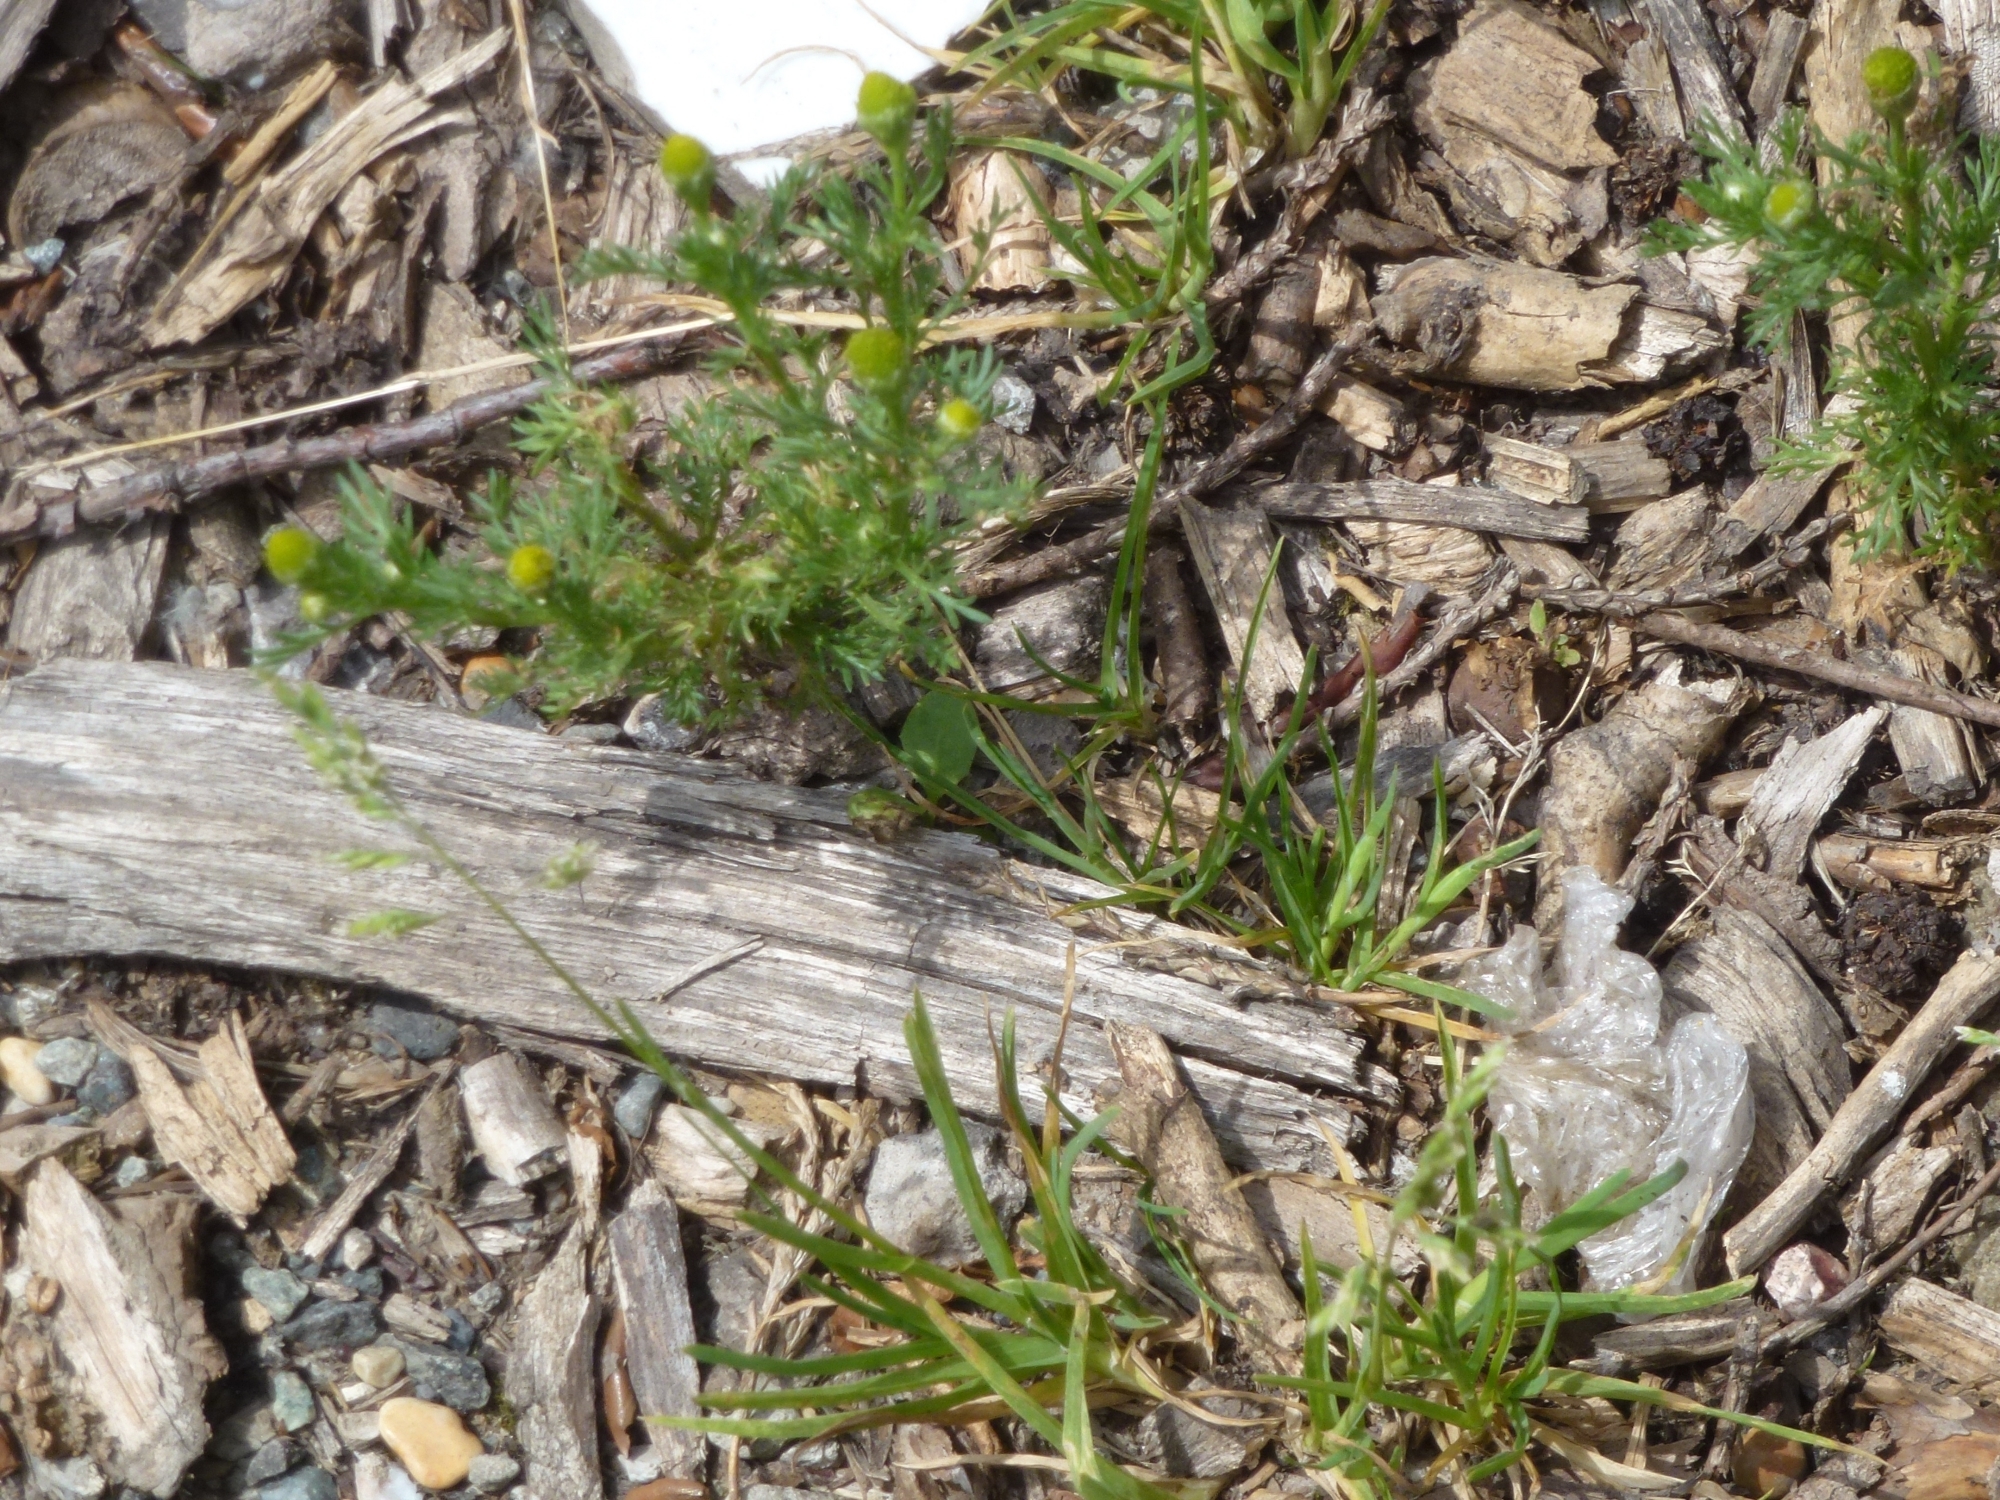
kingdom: Plantae
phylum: Tracheophyta
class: Magnoliopsida
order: Asterales
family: Asteraceae
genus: Matricaria
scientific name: Matricaria discoidea
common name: Disc mayweed
